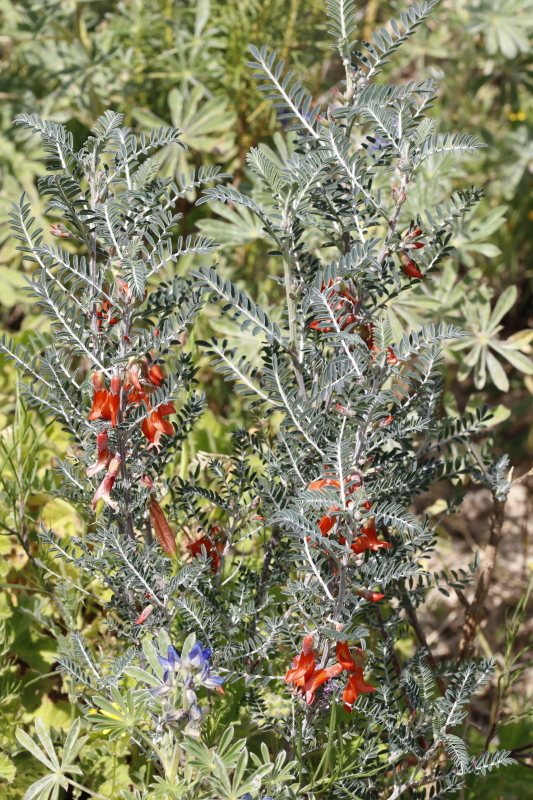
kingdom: Plantae
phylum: Tracheophyta
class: Magnoliopsida
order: Fabales
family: Fabaceae
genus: Lessertia
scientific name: Lessertia frutescens
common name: Balloon-pea
